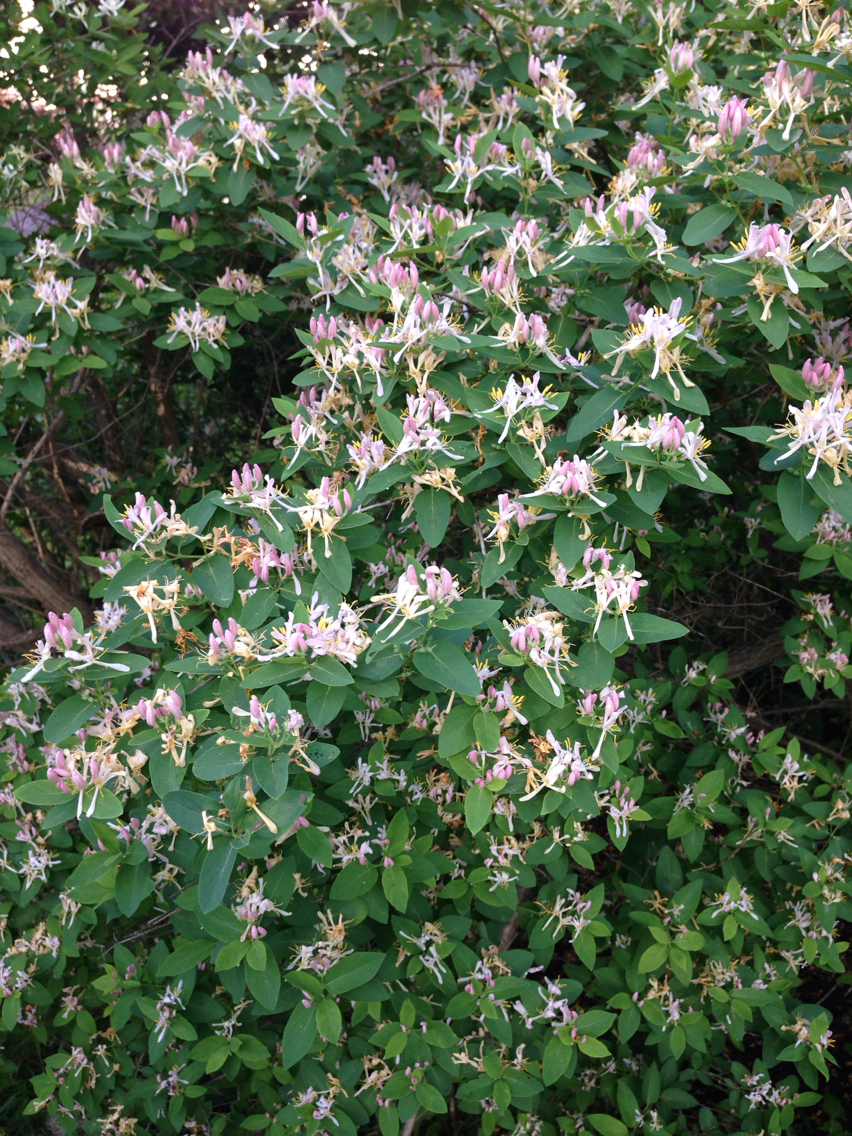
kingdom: Plantae
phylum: Tracheophyta
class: Magnoliopsida
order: Dipsacales
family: Caprifoliaceae
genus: Lonicera
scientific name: Lonicera tatarica
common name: Tatarian honeysuckle
